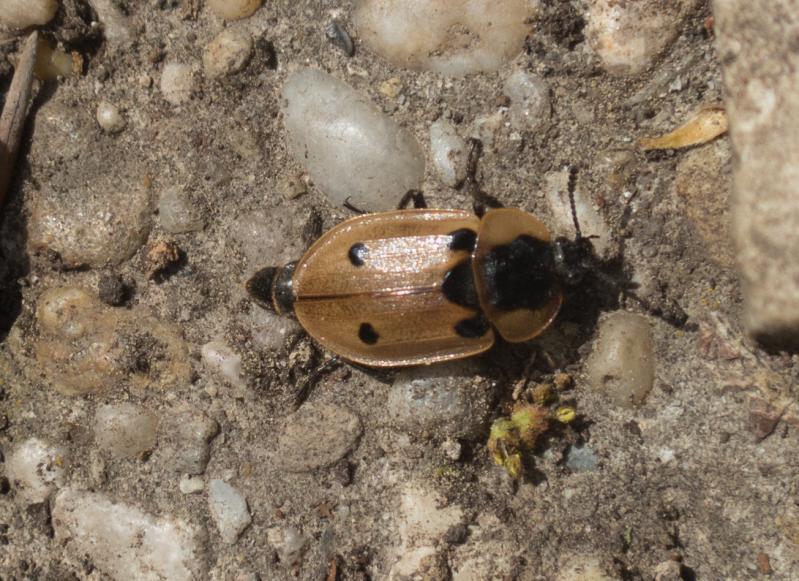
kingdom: Animalia
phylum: Arthropoda
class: Insecta
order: Coleoptera
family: Staphylinidae
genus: Dendroxena
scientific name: Dendroxena quadrimaculata
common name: Carrion beetle
